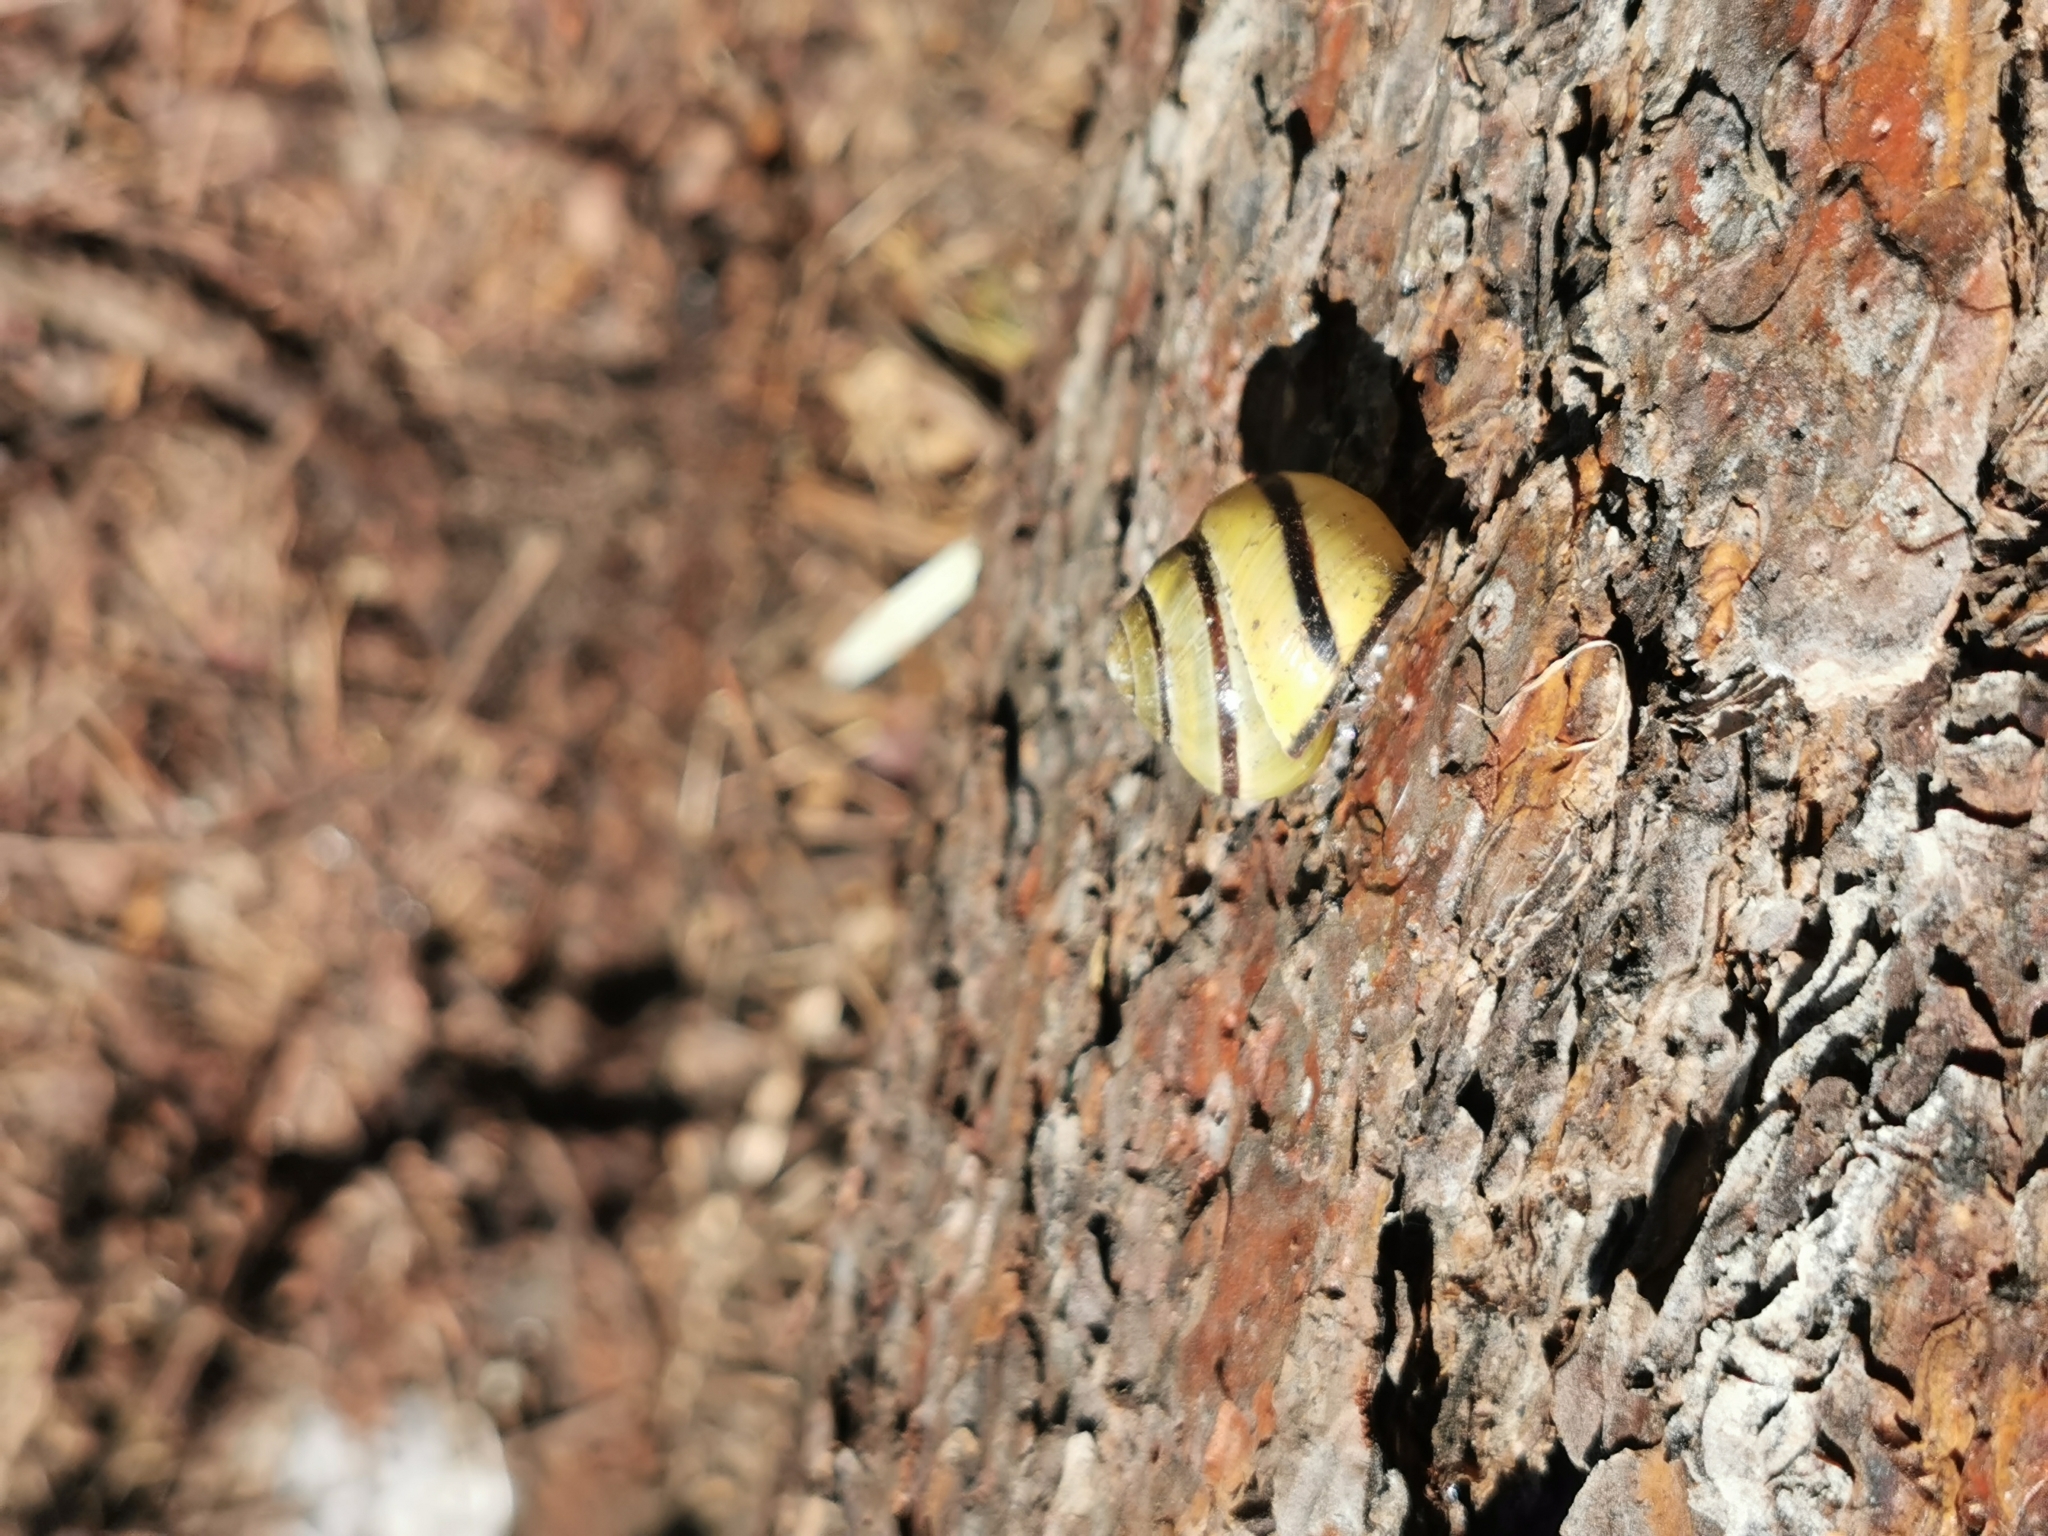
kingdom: Animalia
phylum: Mollusca
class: Gastropoda
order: Stylommatophora
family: Helicidae
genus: Cepaea
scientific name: Cepaea nemoralis
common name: Grovesnail
